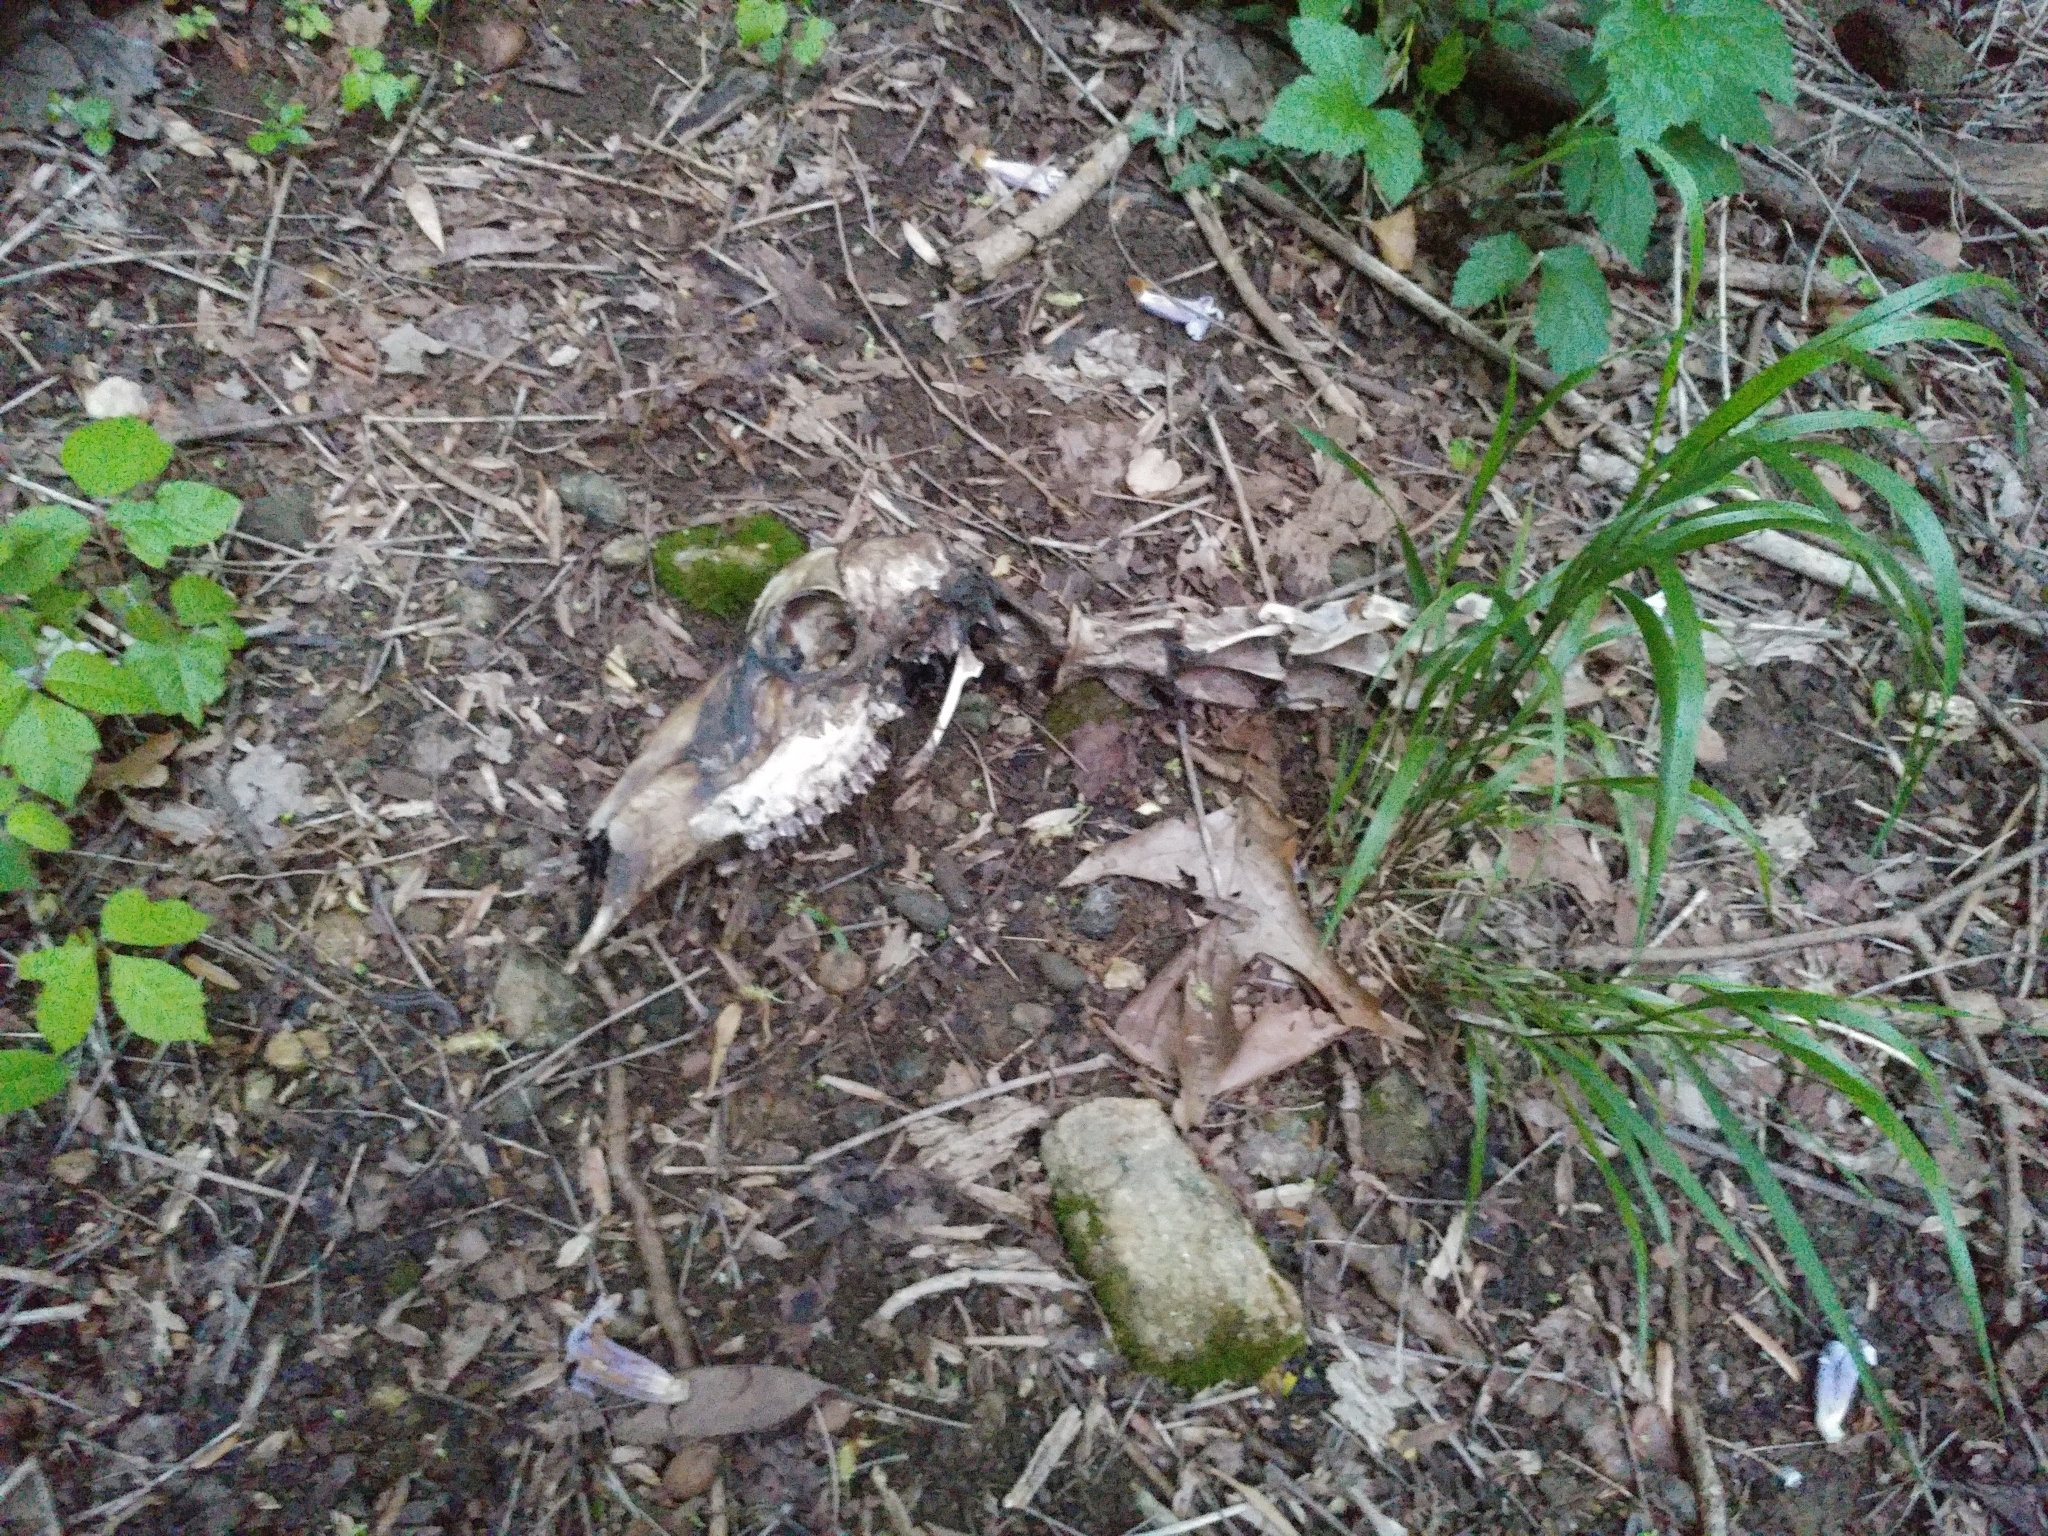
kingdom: Animalia
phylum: Chordata
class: Mammalia
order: Artiodactyla
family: Cervidae
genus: Odocoileus
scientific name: Odocoileus virginianus
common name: White-tailed deer
